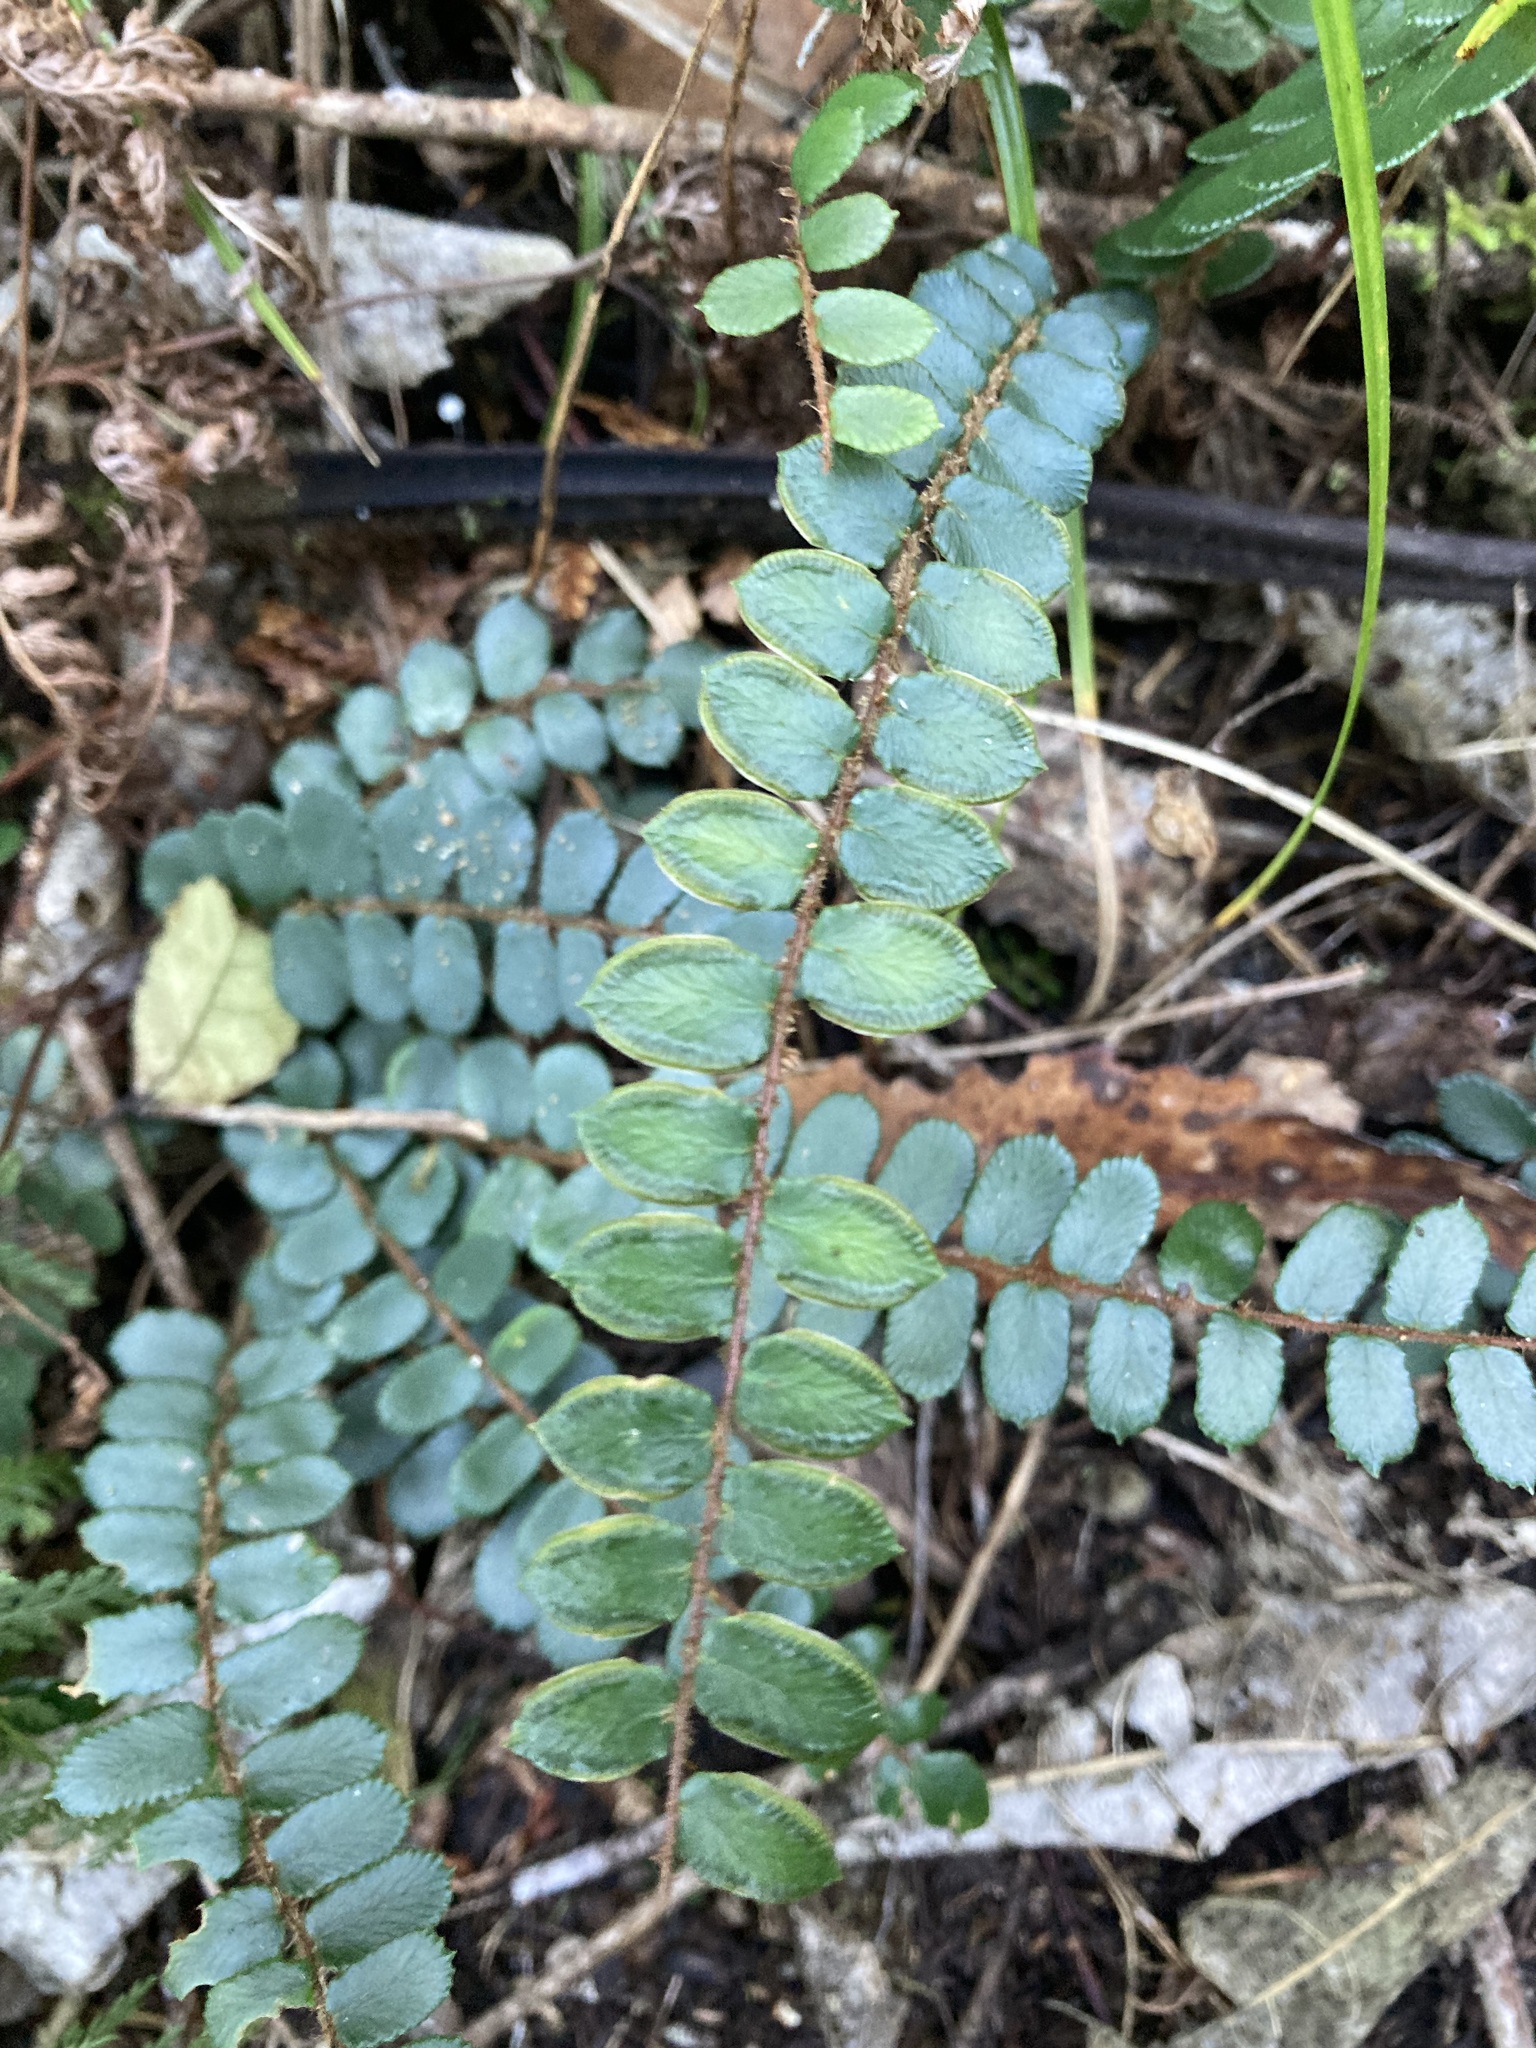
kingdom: Plantae
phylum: Tracheophyta
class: Polypodiopsida
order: Polypodiales
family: Pteridaceae
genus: Pellaea
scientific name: Pellaea rotundifolia
